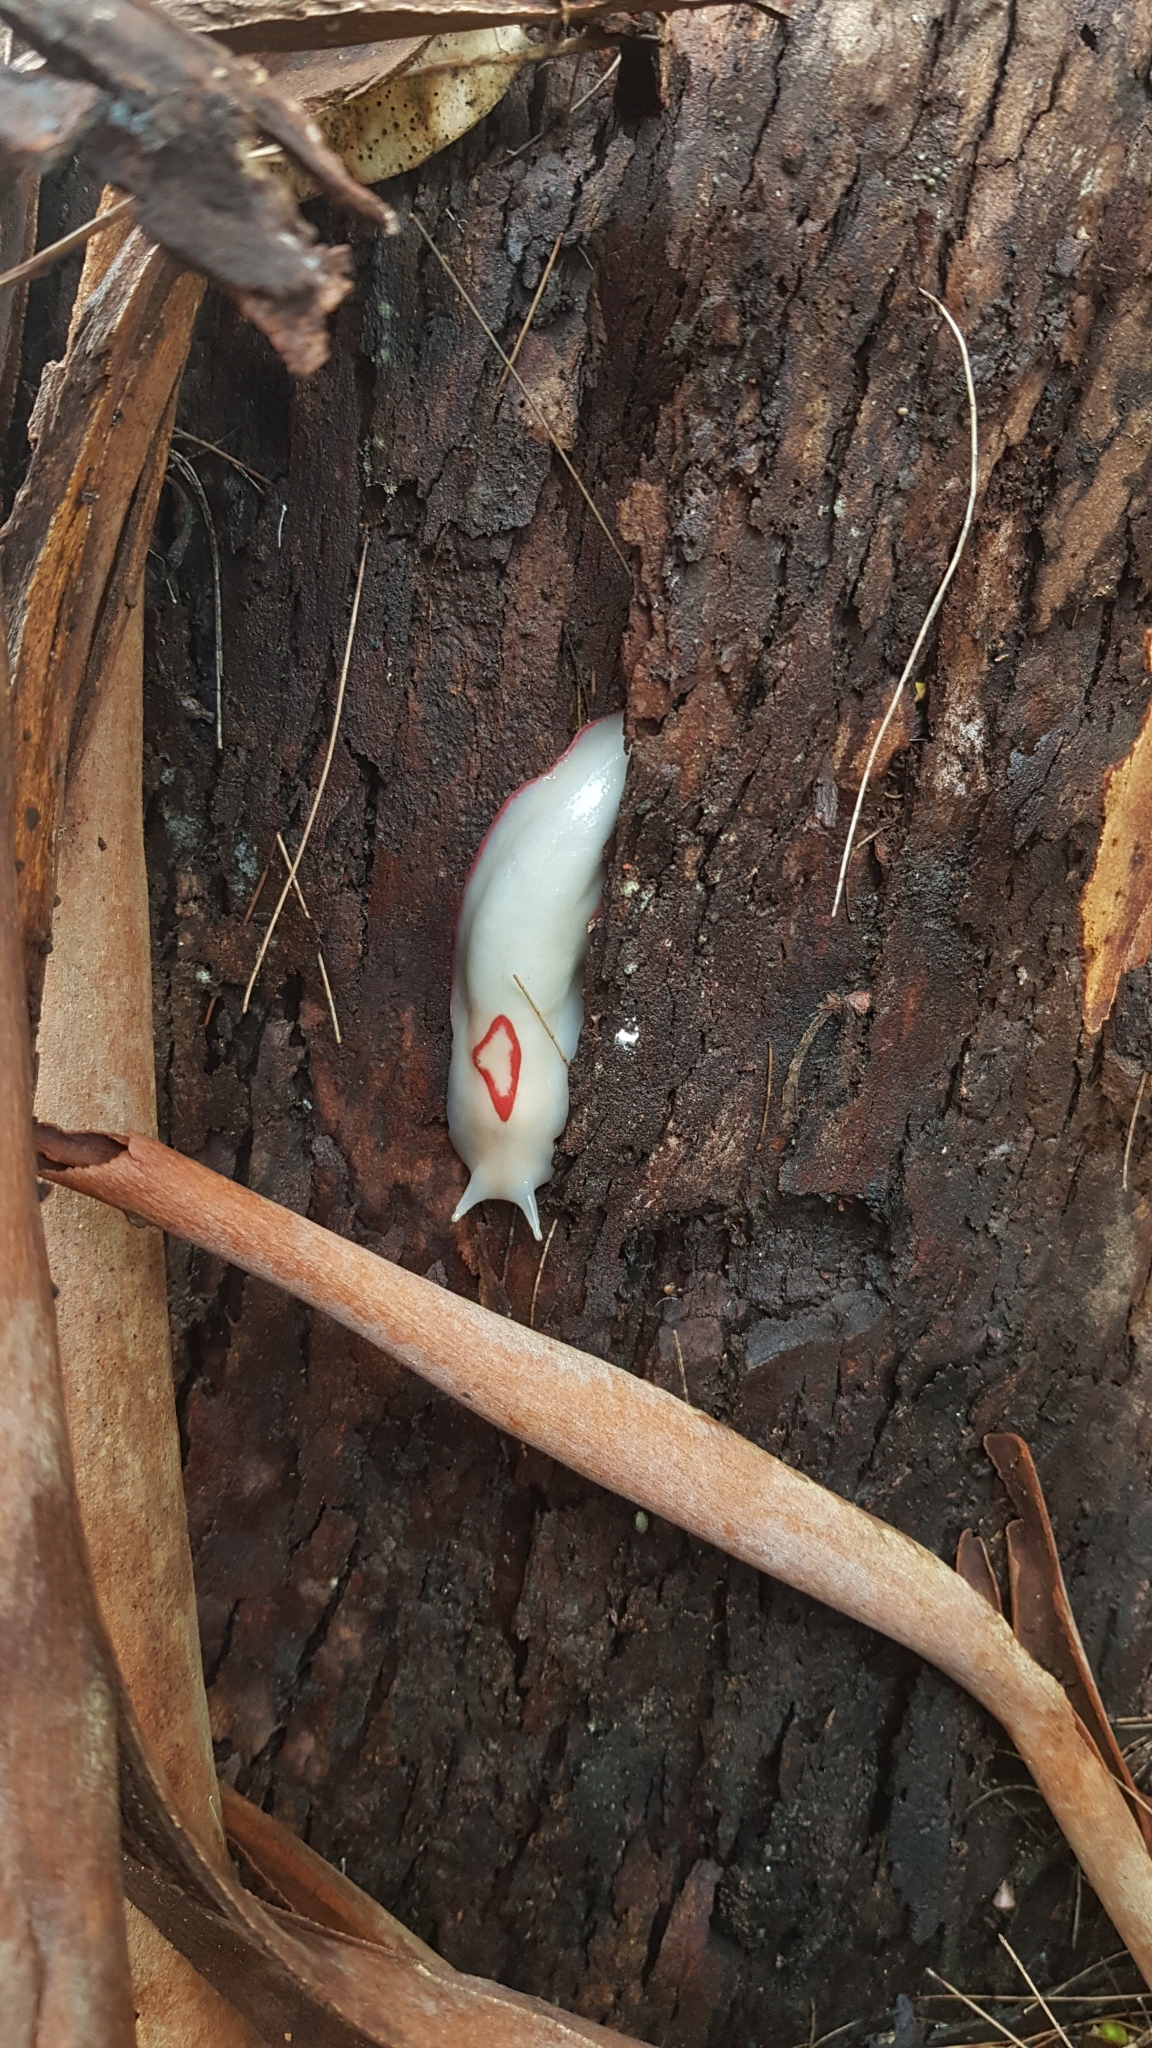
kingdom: Animalia
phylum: Mollusca
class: Gastropoda
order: Stylommatophora
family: Athoracophoridae
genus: Triboniophorus
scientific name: Triboniophorus graeffei
